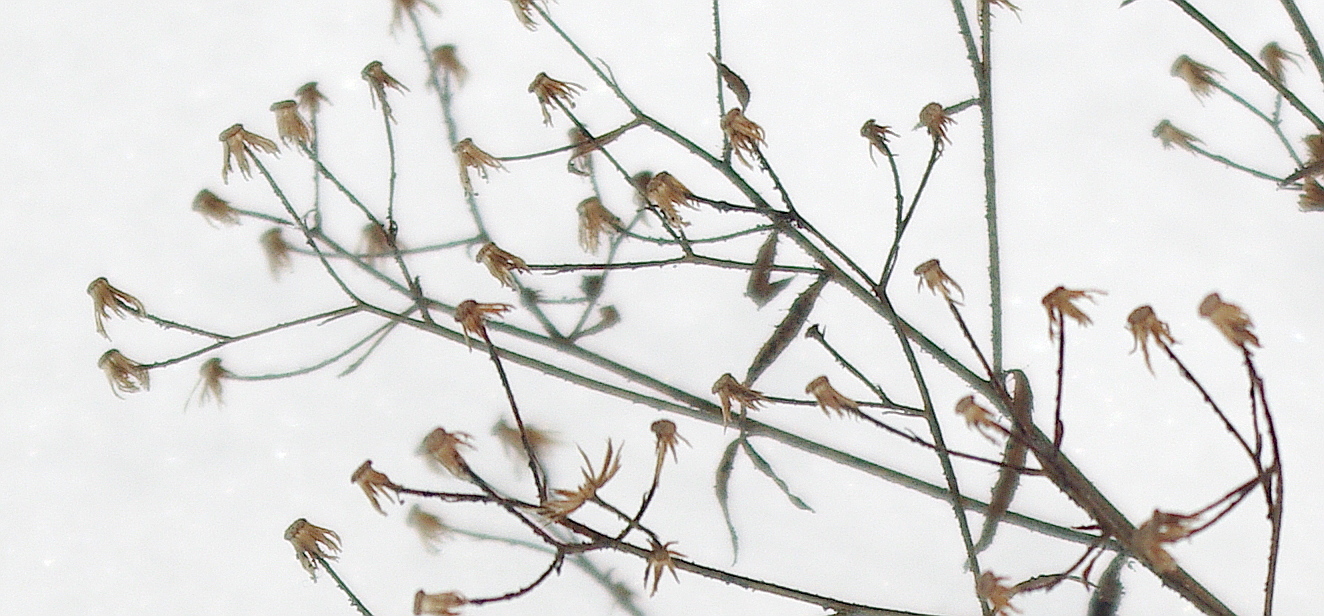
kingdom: Plantae
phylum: Tracheophyta
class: Magnoliopsida
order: Asterales
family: Asteraceae
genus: Erigeron
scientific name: Erigeron canadensis
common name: Canadian fleabane
